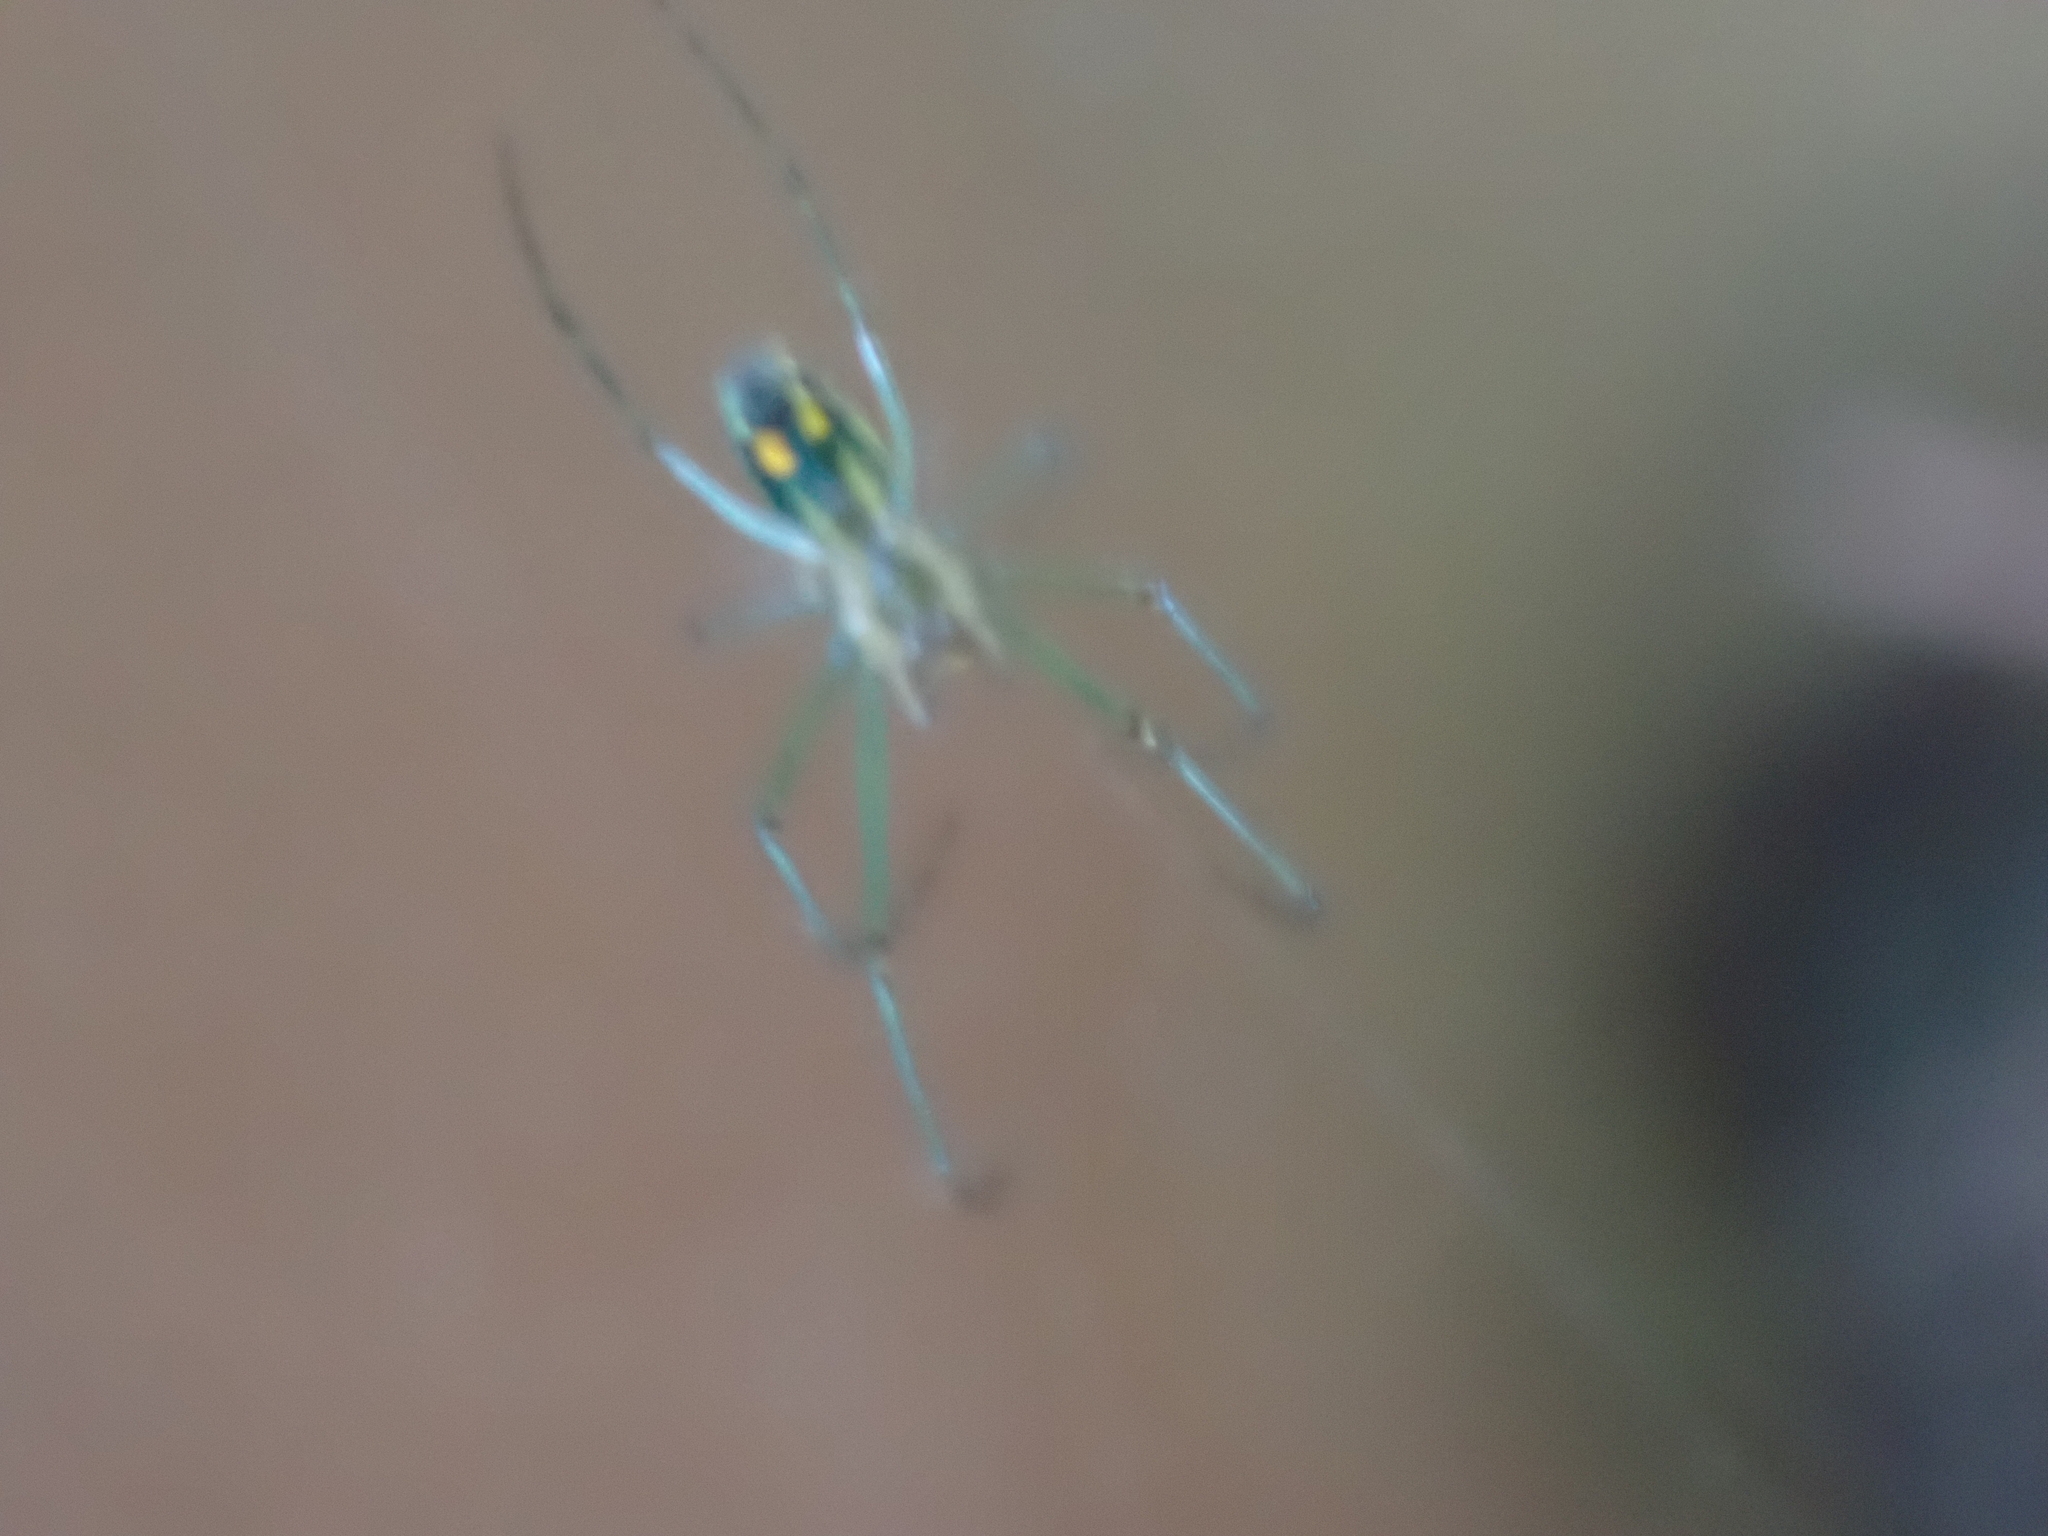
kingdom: Animalia
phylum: Arthropoda
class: Arachnida
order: Araneae
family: Tetragnathidae
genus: Leucauge
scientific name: Leucauge venusta
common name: Longjawed orb weavers
